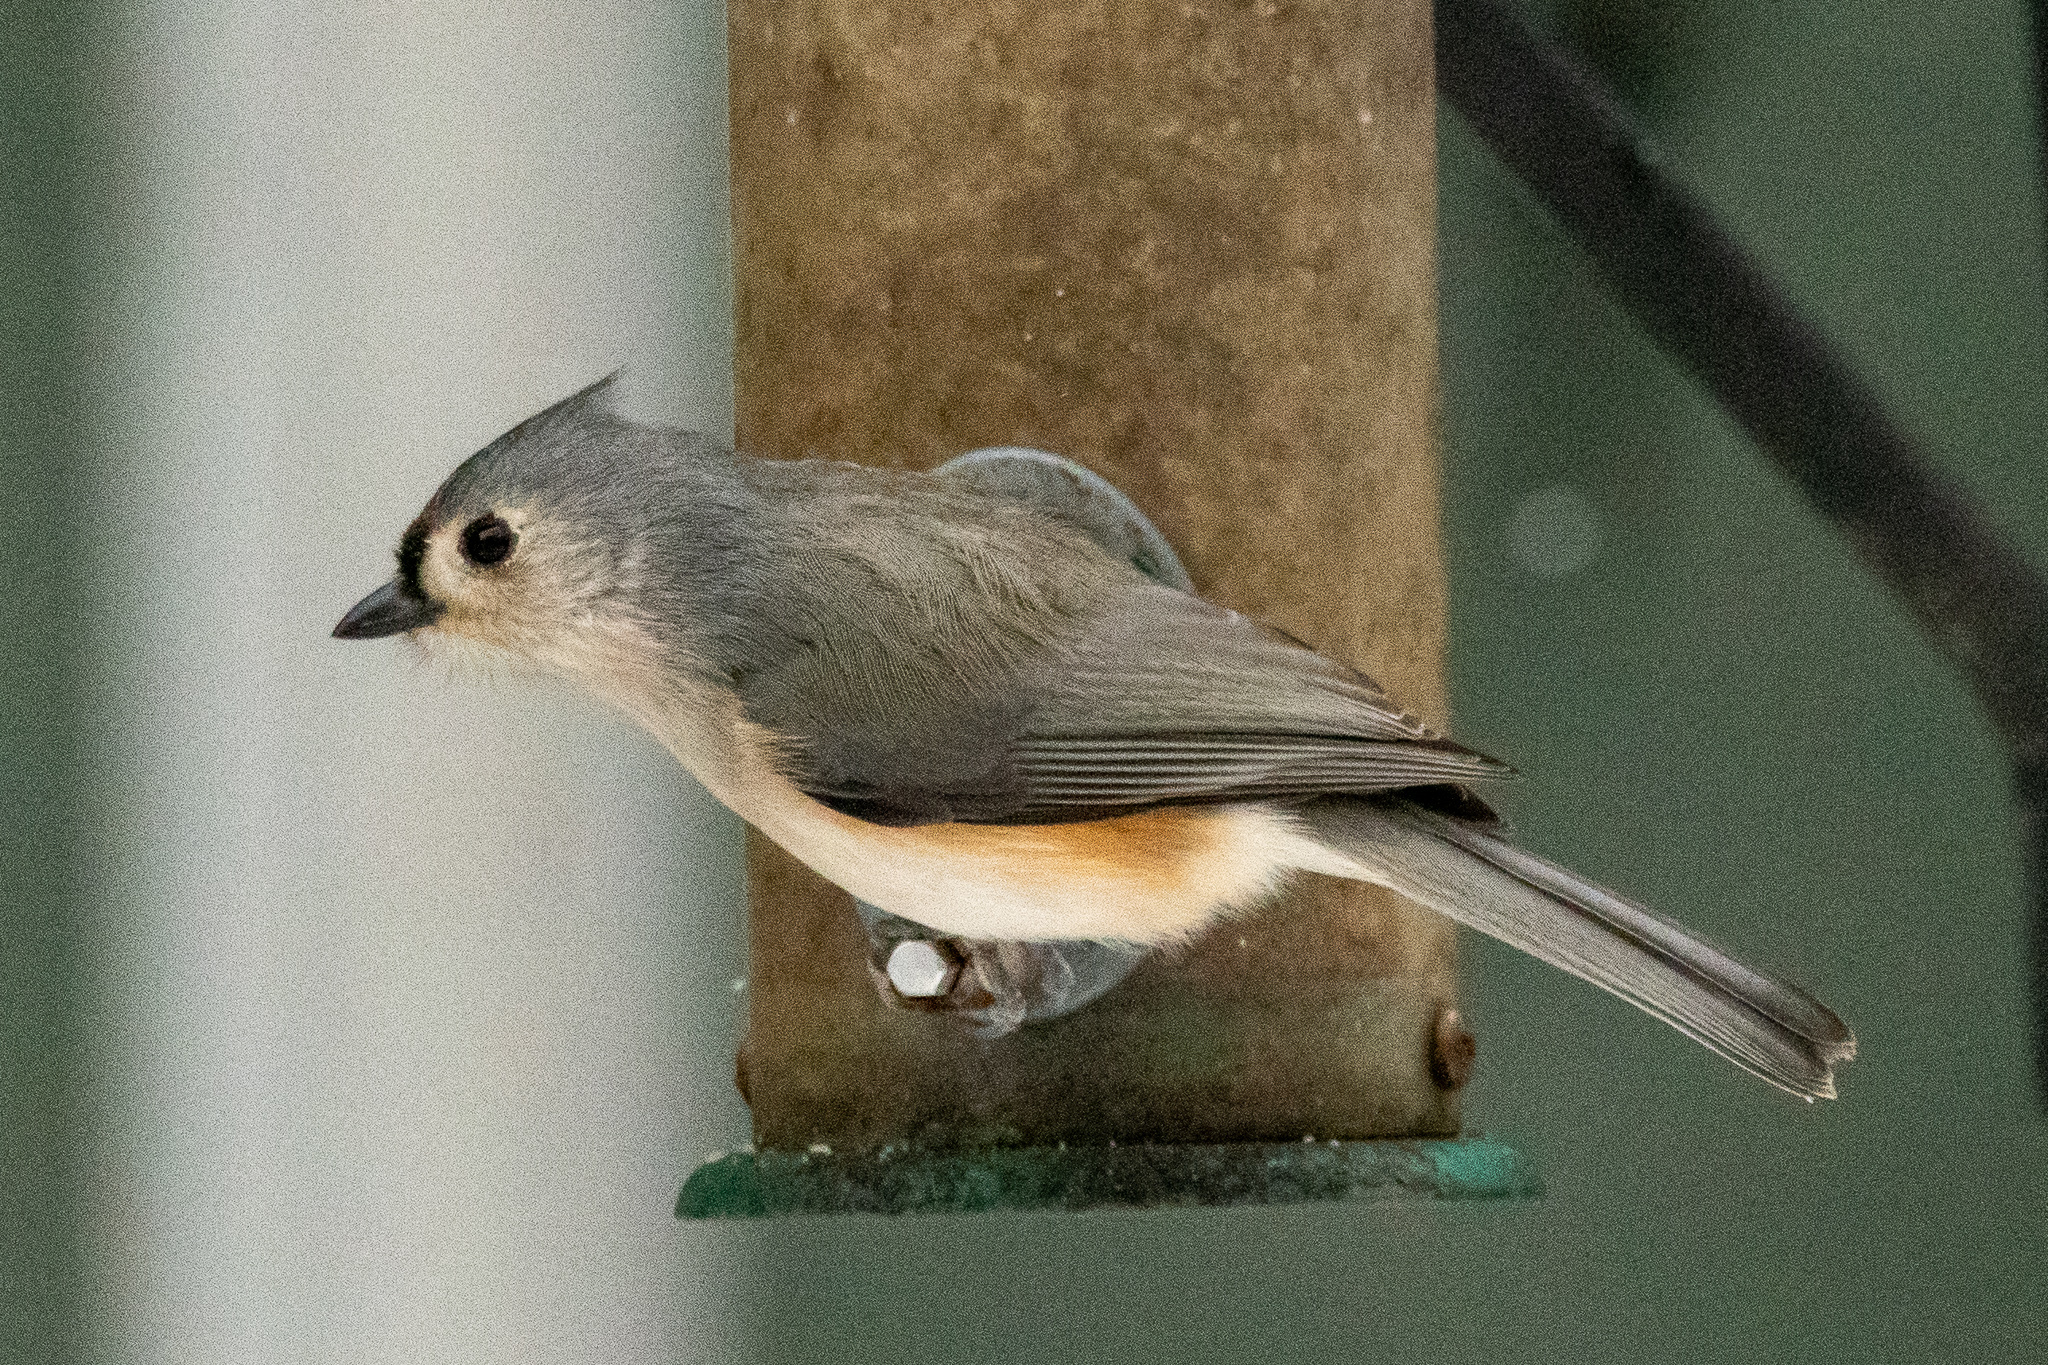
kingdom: Animalia
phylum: Chordata
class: Aves
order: Passeriformes
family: Paridae
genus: Baeolophus
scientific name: Baeolophus bicolor
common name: Tufted titmouse
